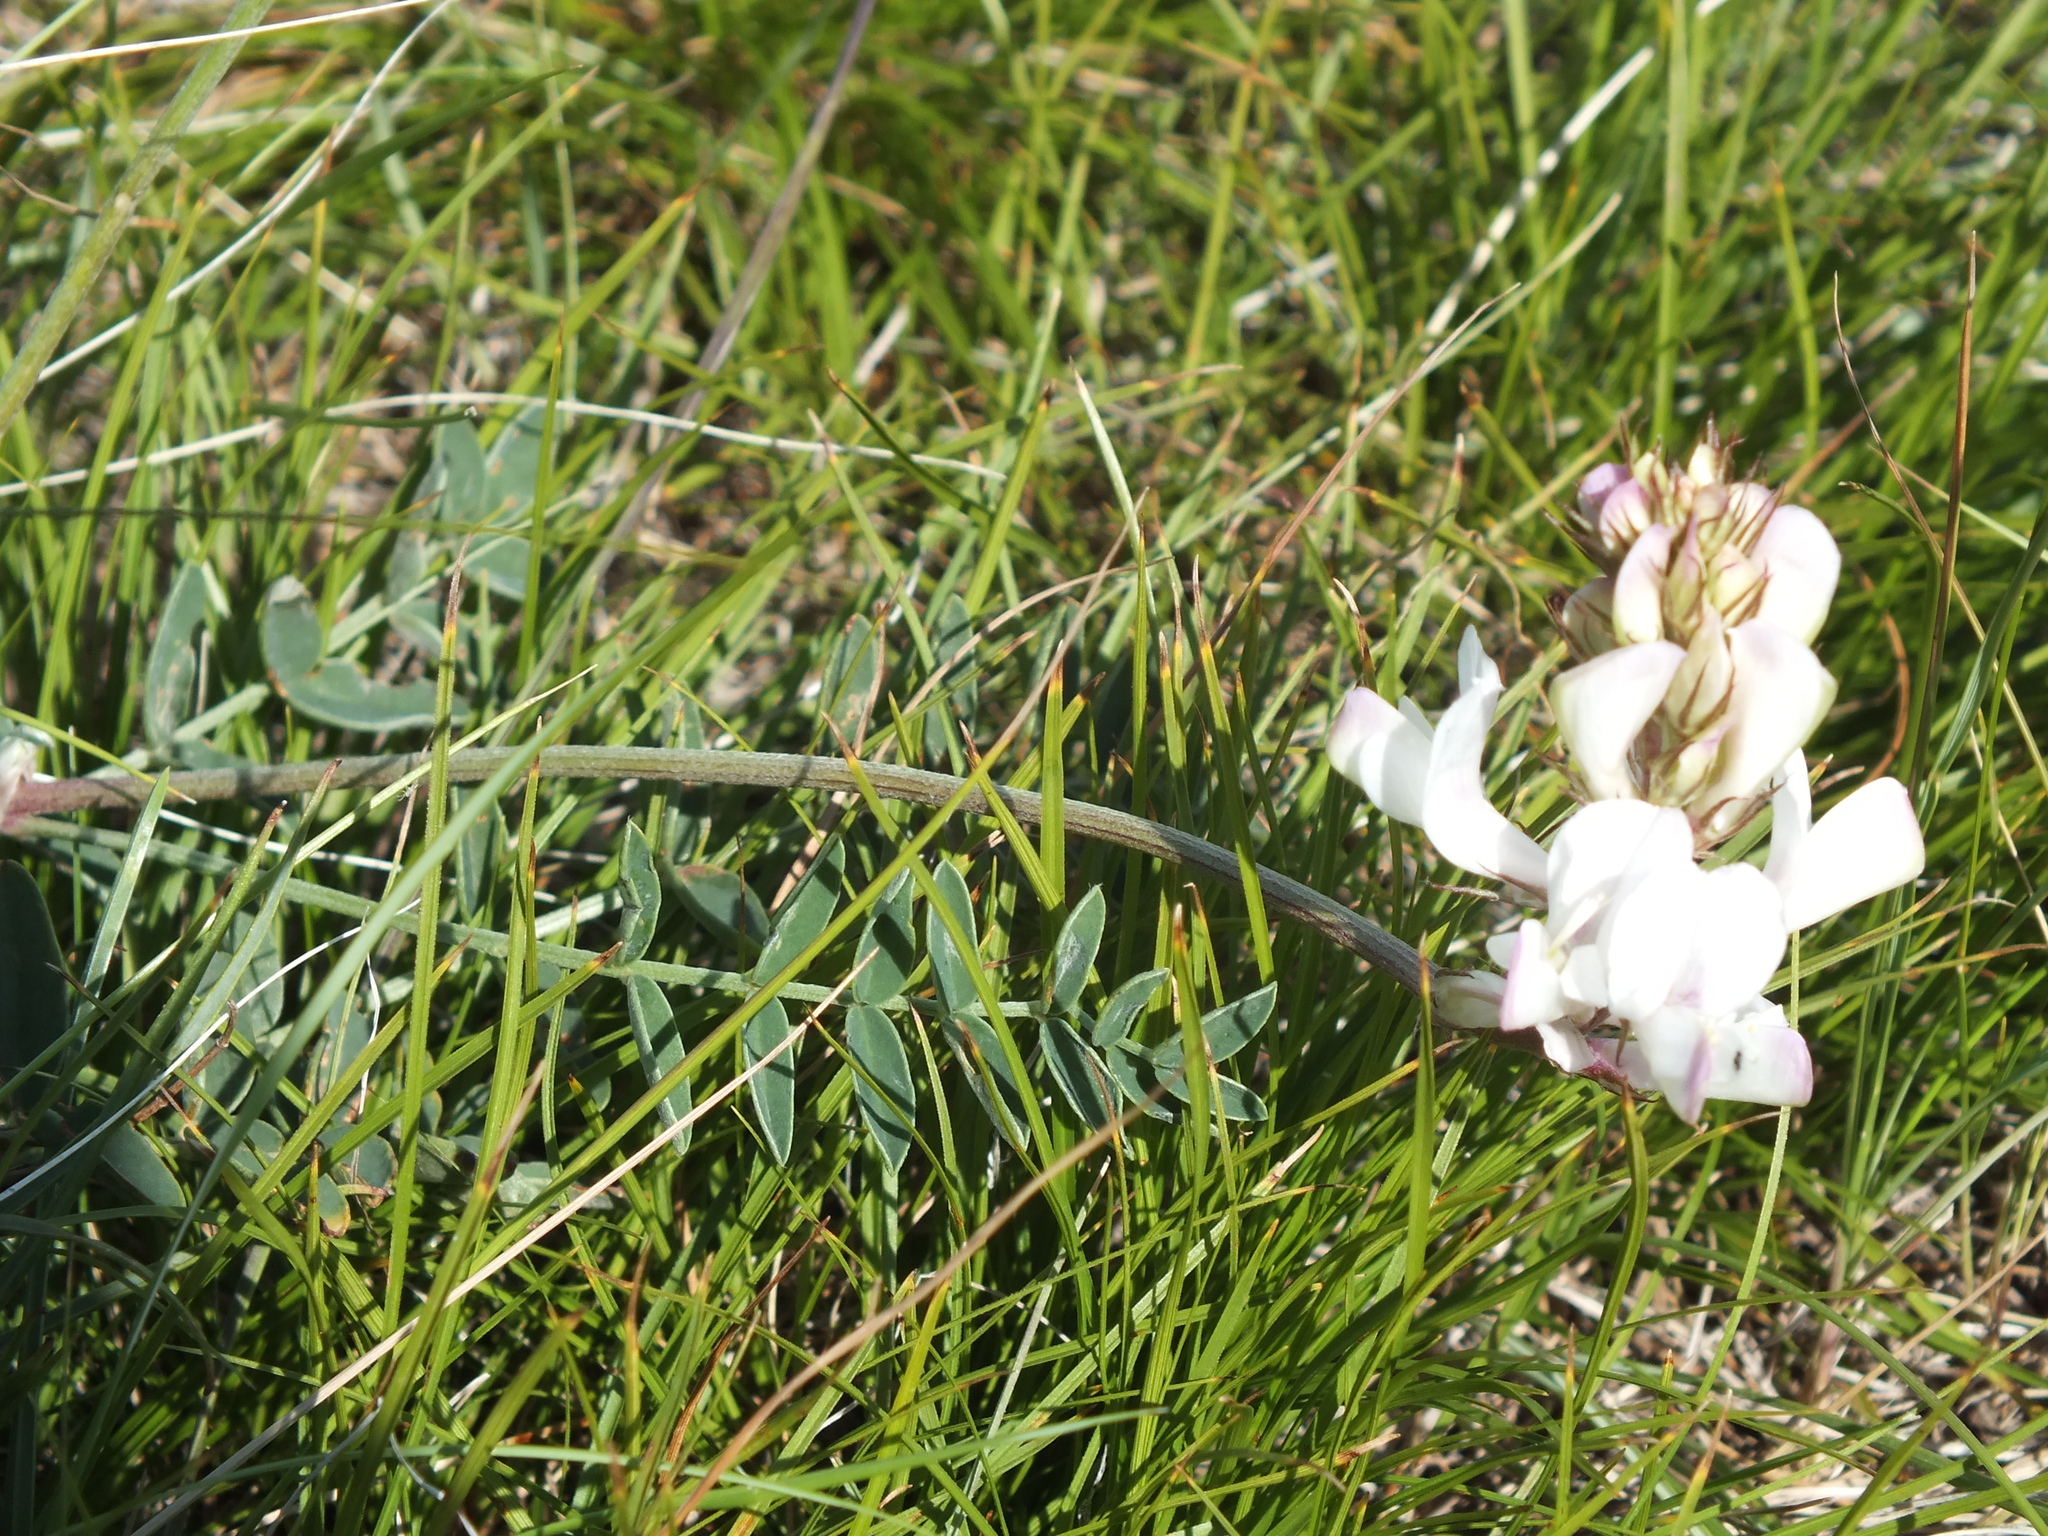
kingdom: Plantae
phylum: Tracheophyta
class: Magnoliopsida
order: Fabales
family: Fabaceae
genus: Hedysarum
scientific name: Hedysarum gmelinii
